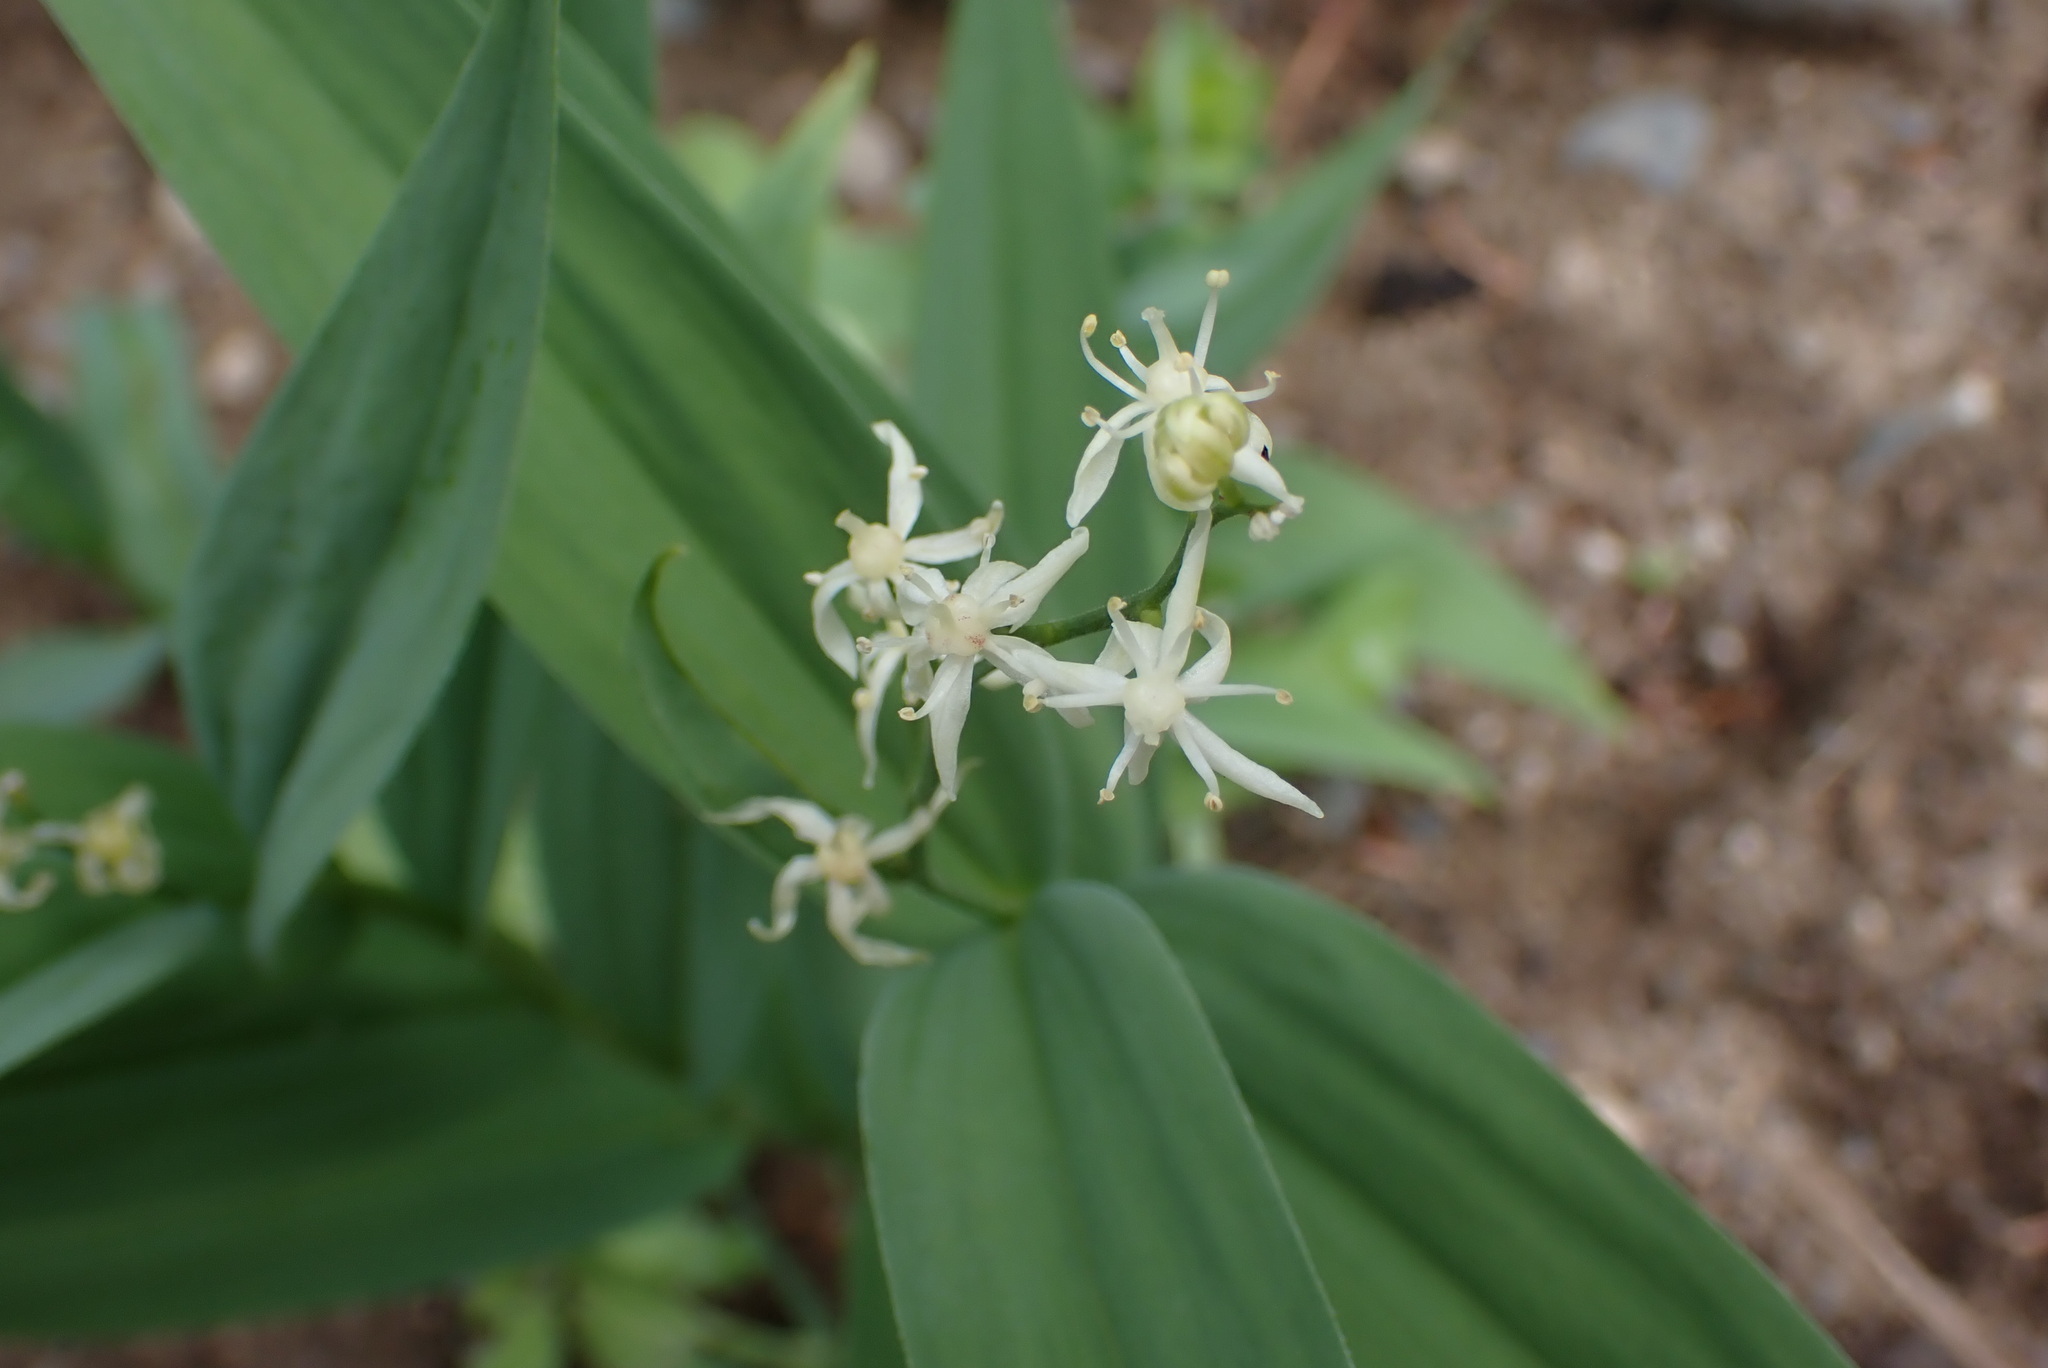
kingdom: Plantae
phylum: Tracheophyta
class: Liliopsida
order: Asparagales
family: Asparagaceae
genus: Maianthemum
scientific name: Maianthemum stellatum
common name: Little false solomon's seal
